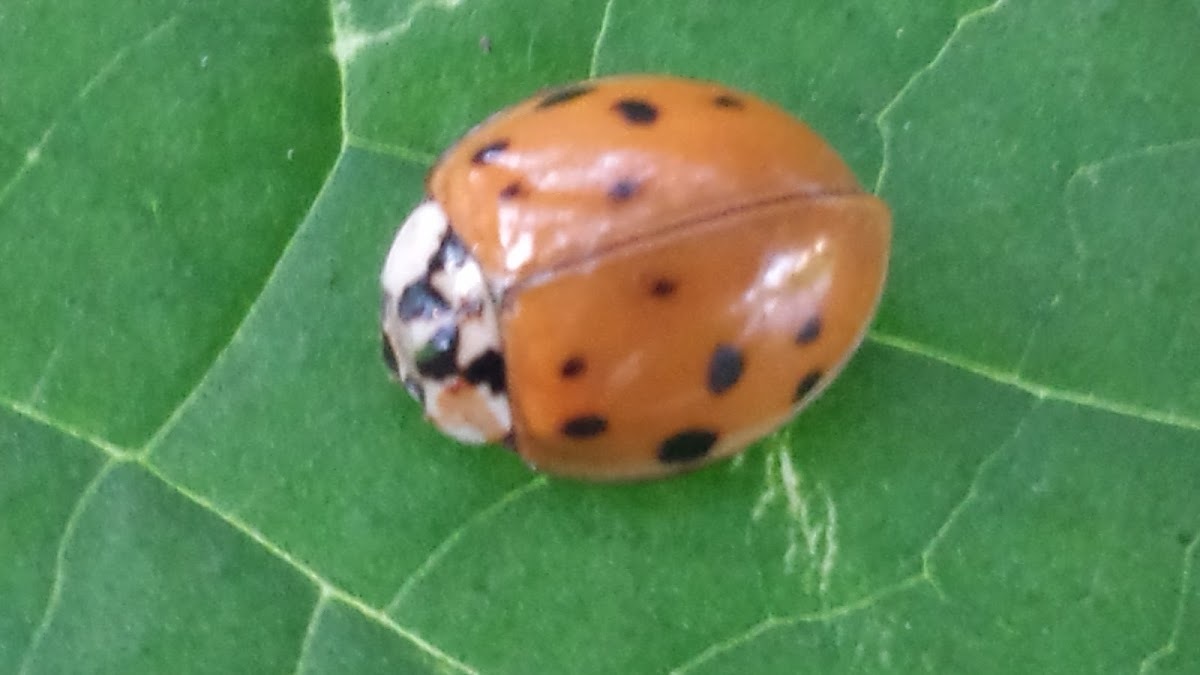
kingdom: Animalia
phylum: Arthropoda
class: Insecta
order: Coleoptera
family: Coccinellidae
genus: Harmonia
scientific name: Harmonia axyridis
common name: Harlequin ladybird
